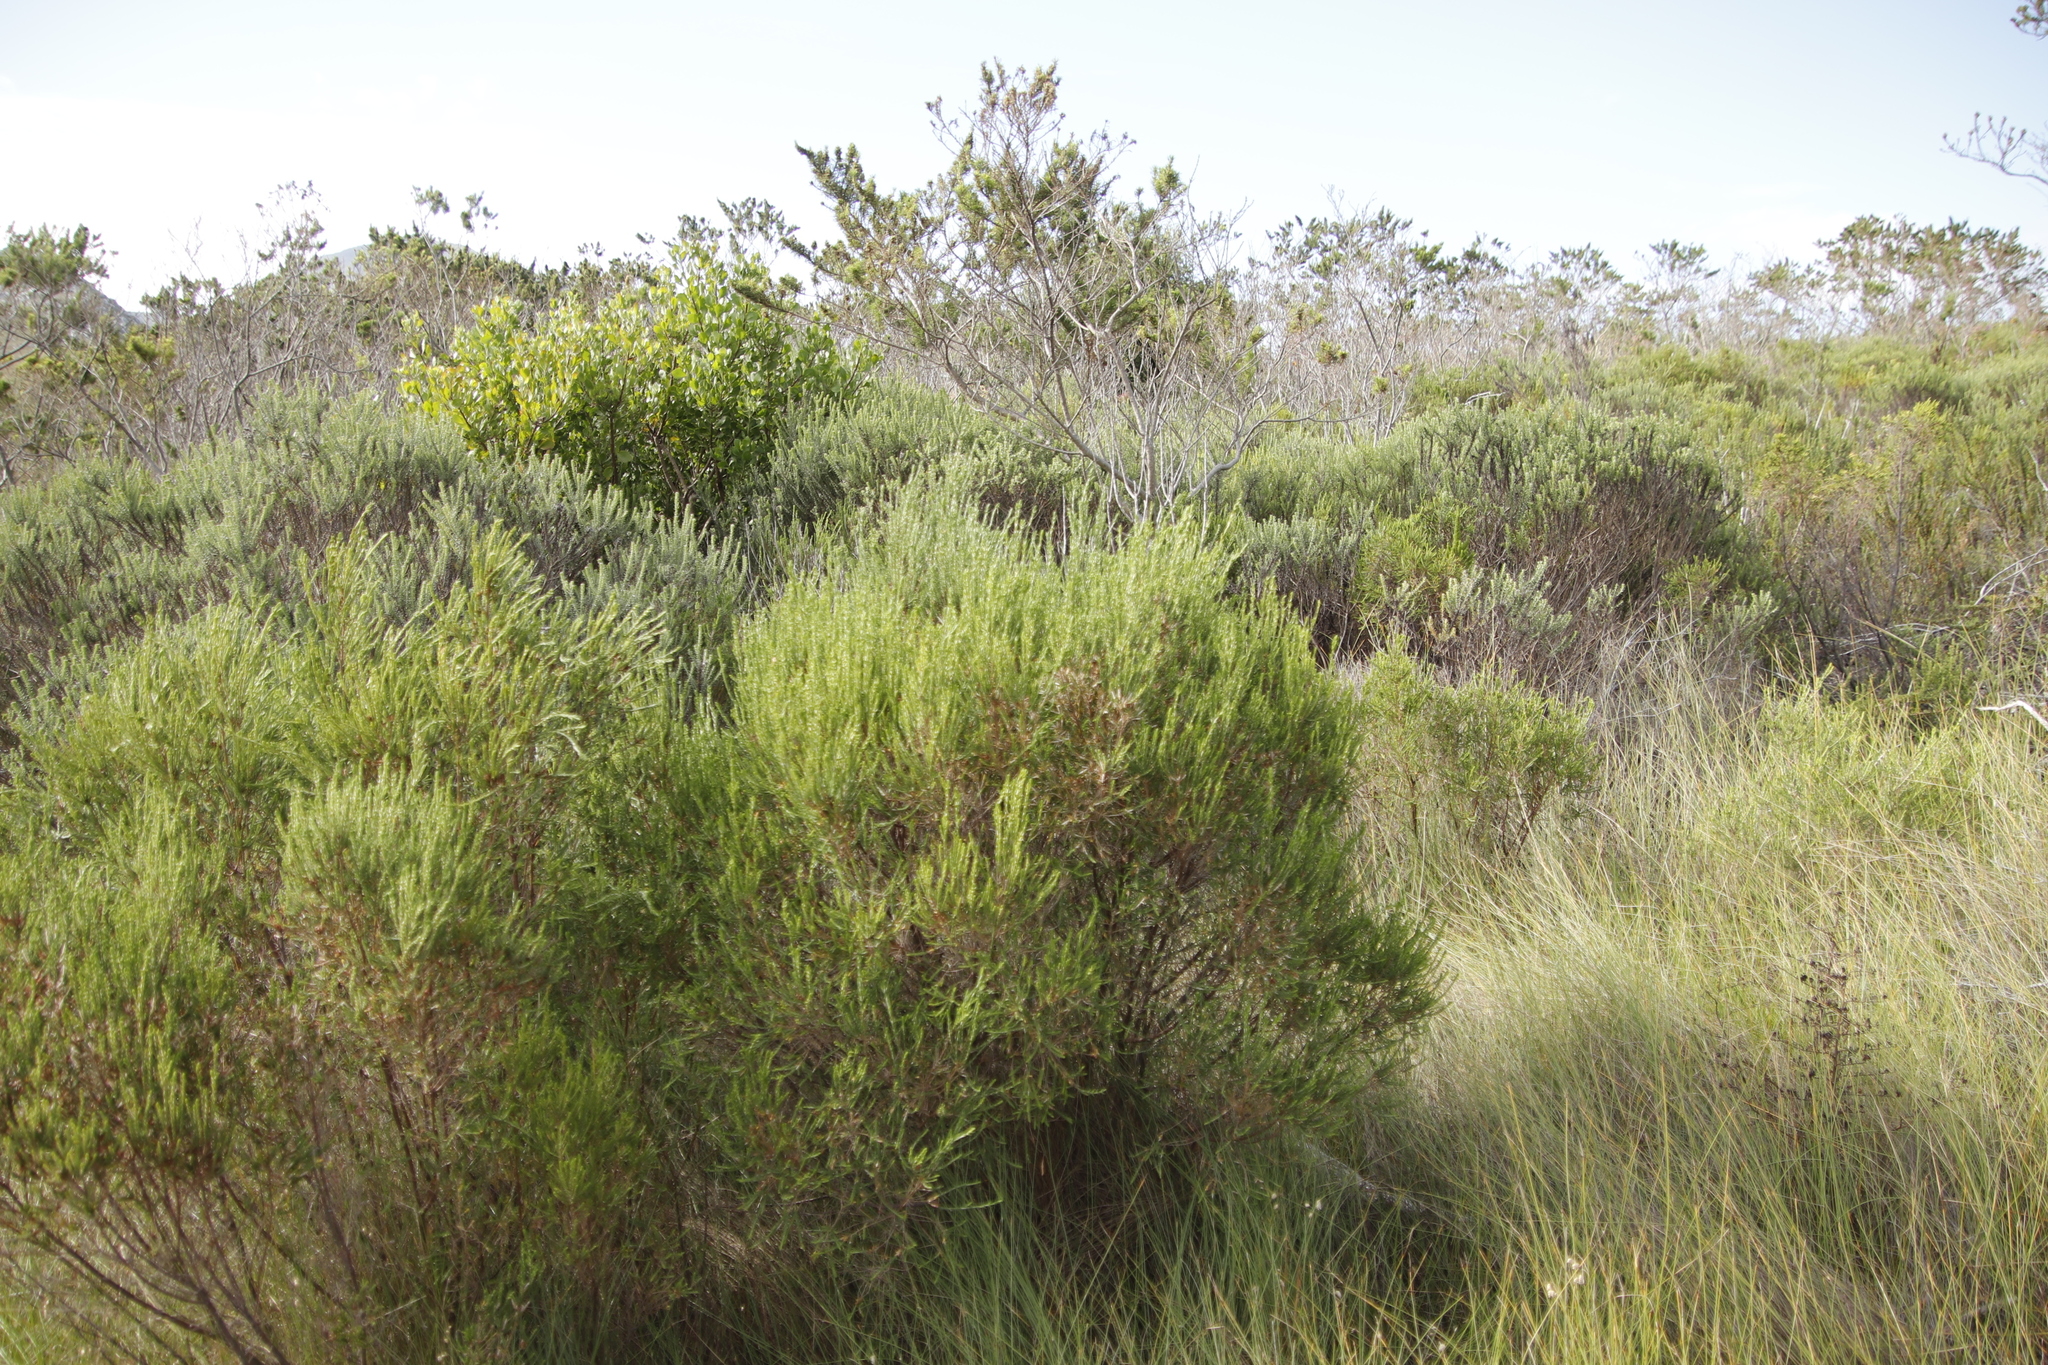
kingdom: Plantae
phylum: Tracheophyta
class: Magnoliopsida
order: Malvales
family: Thymelaeaceae
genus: Passerina
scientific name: Passerina corymbosa
